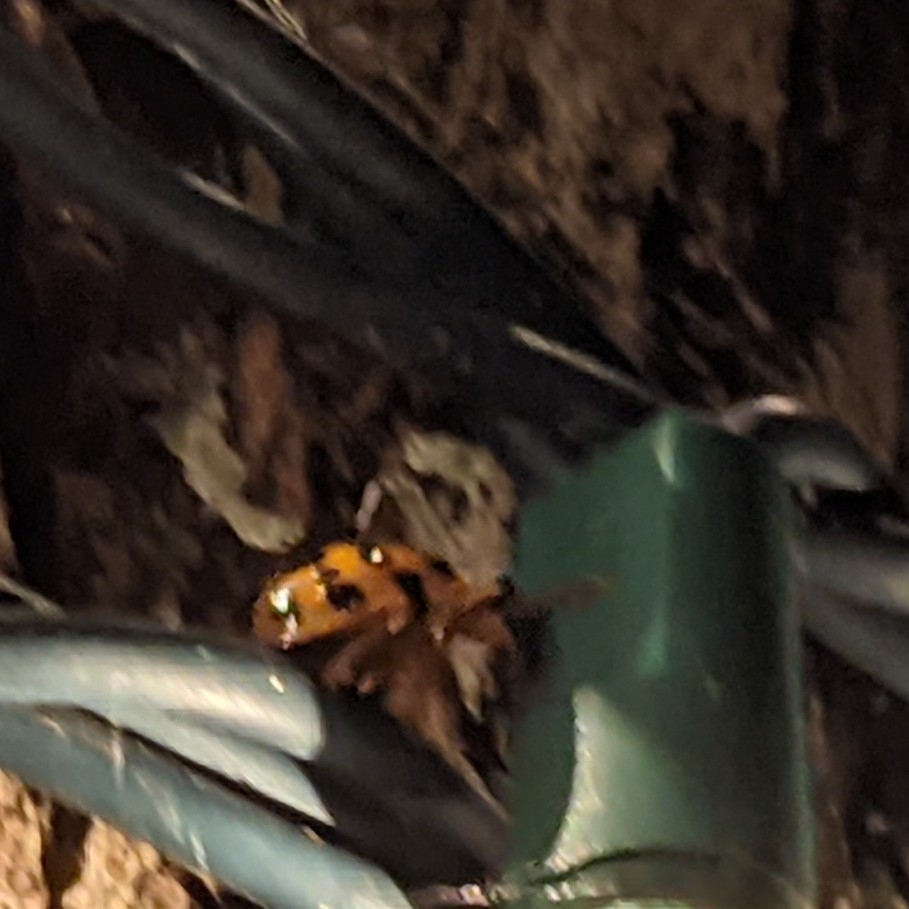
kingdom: Animalia
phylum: Arthropoda
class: Insecta
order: Coleoptera
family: Coccinellidae
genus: Harmonia
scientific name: Harmonia axyridis
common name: Harlequin ladybird
